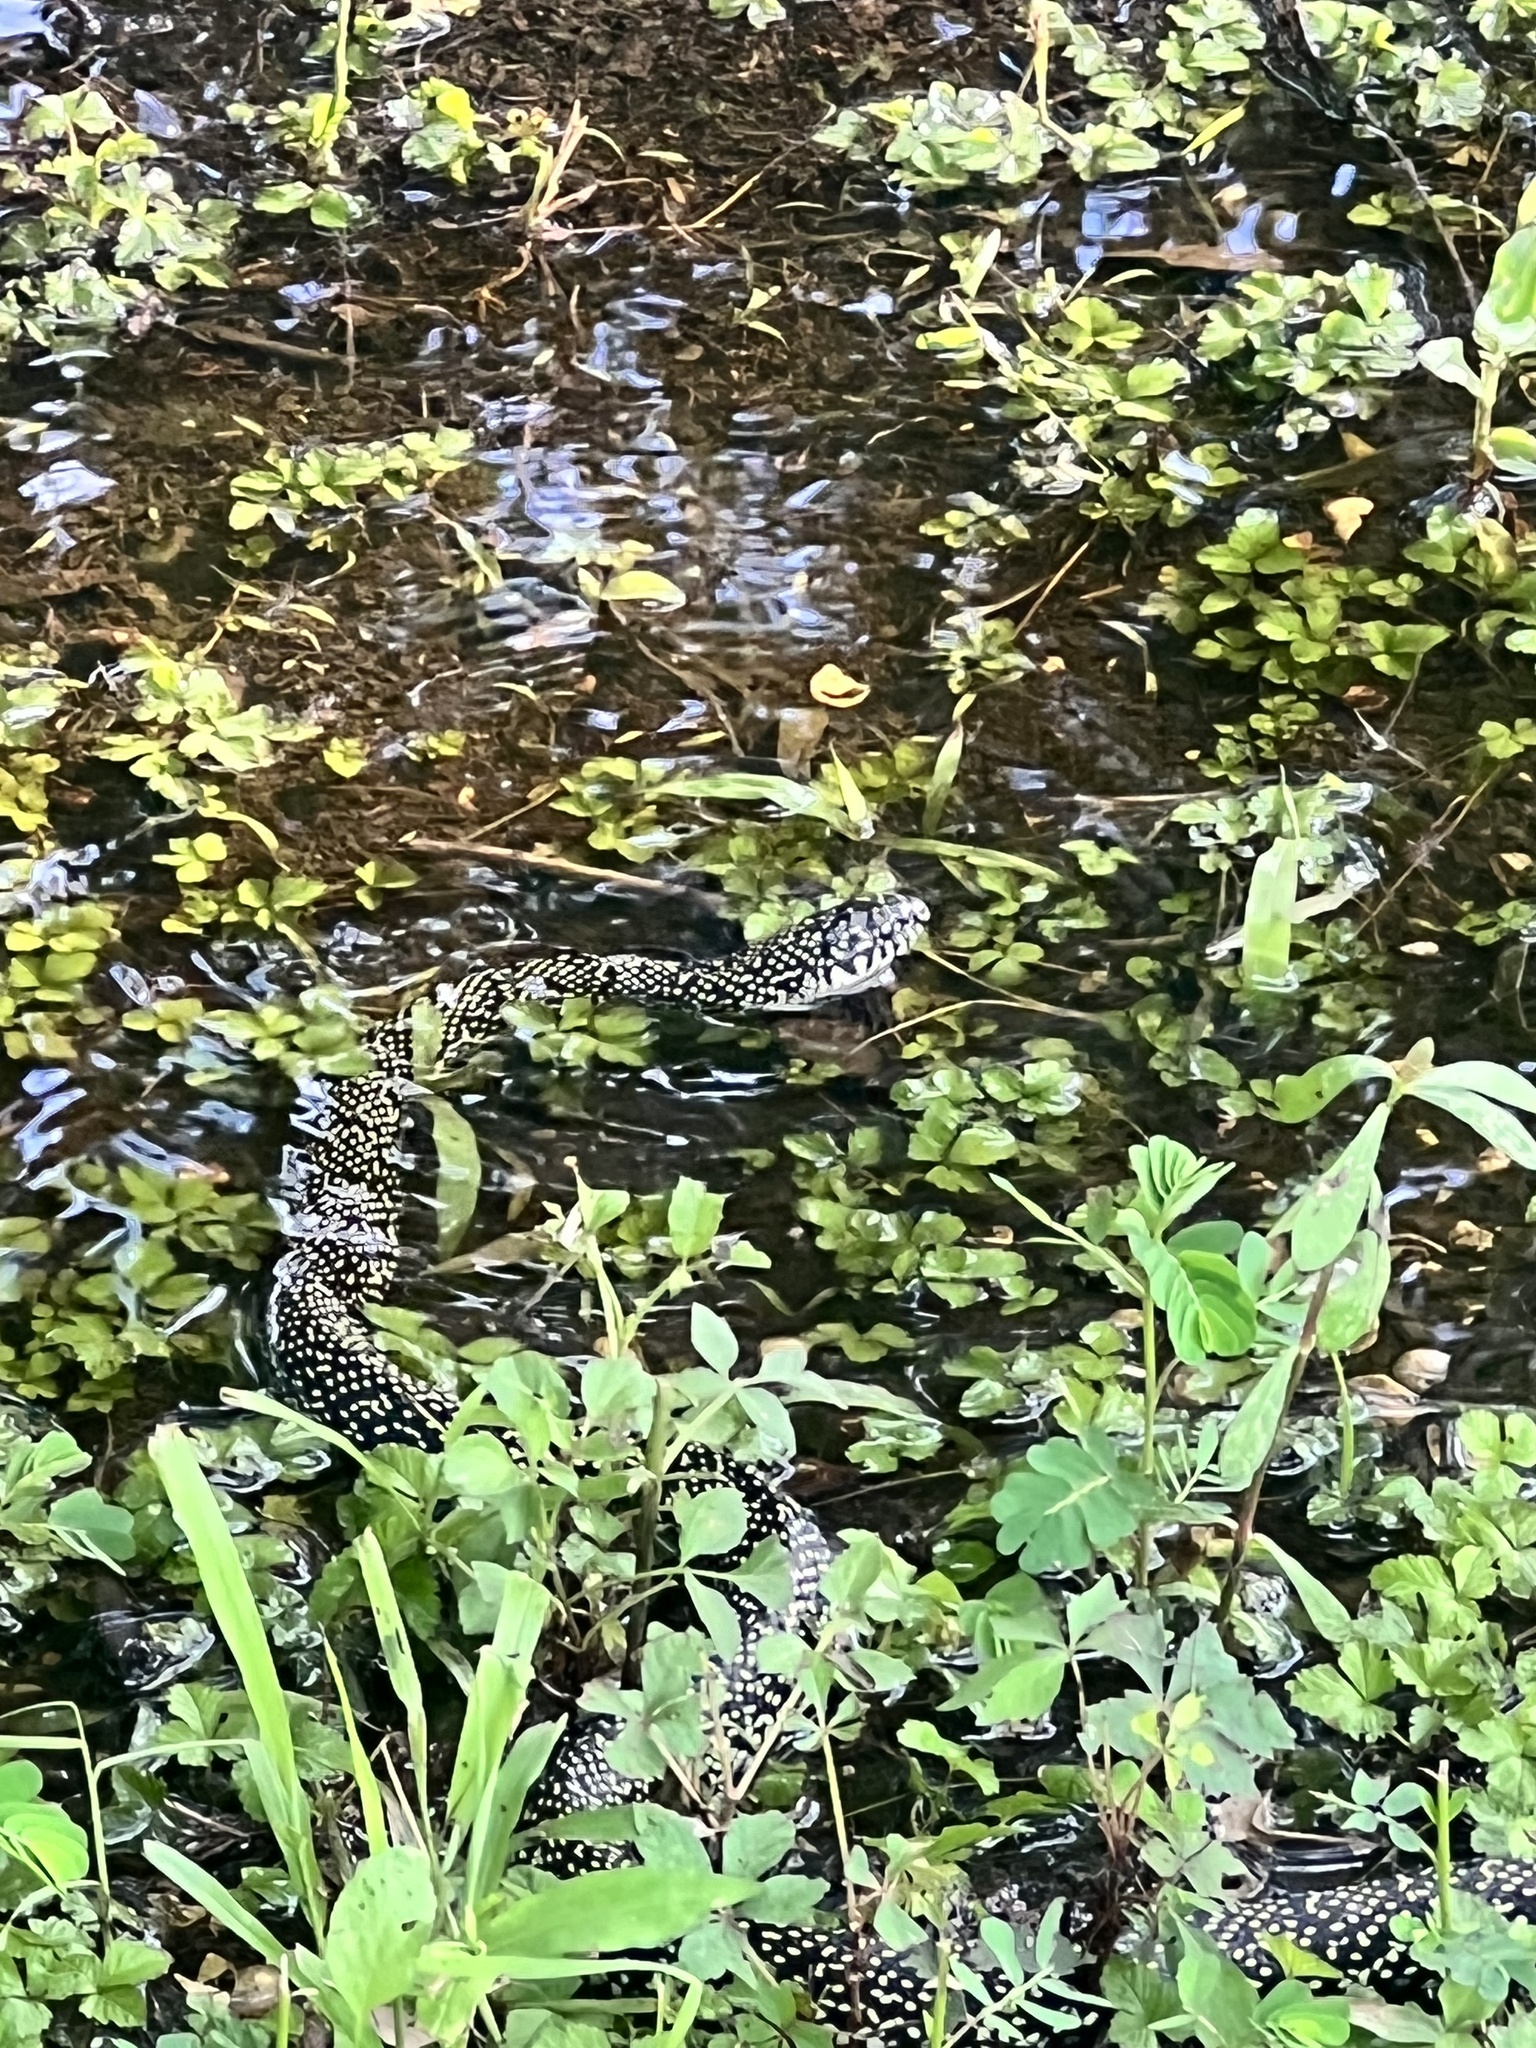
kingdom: Animalia
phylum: Chordata
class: Squamata
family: Colubridae
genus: Lampropeltis
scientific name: Lampropeltis holbrooki
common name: Speckled kingsnake
